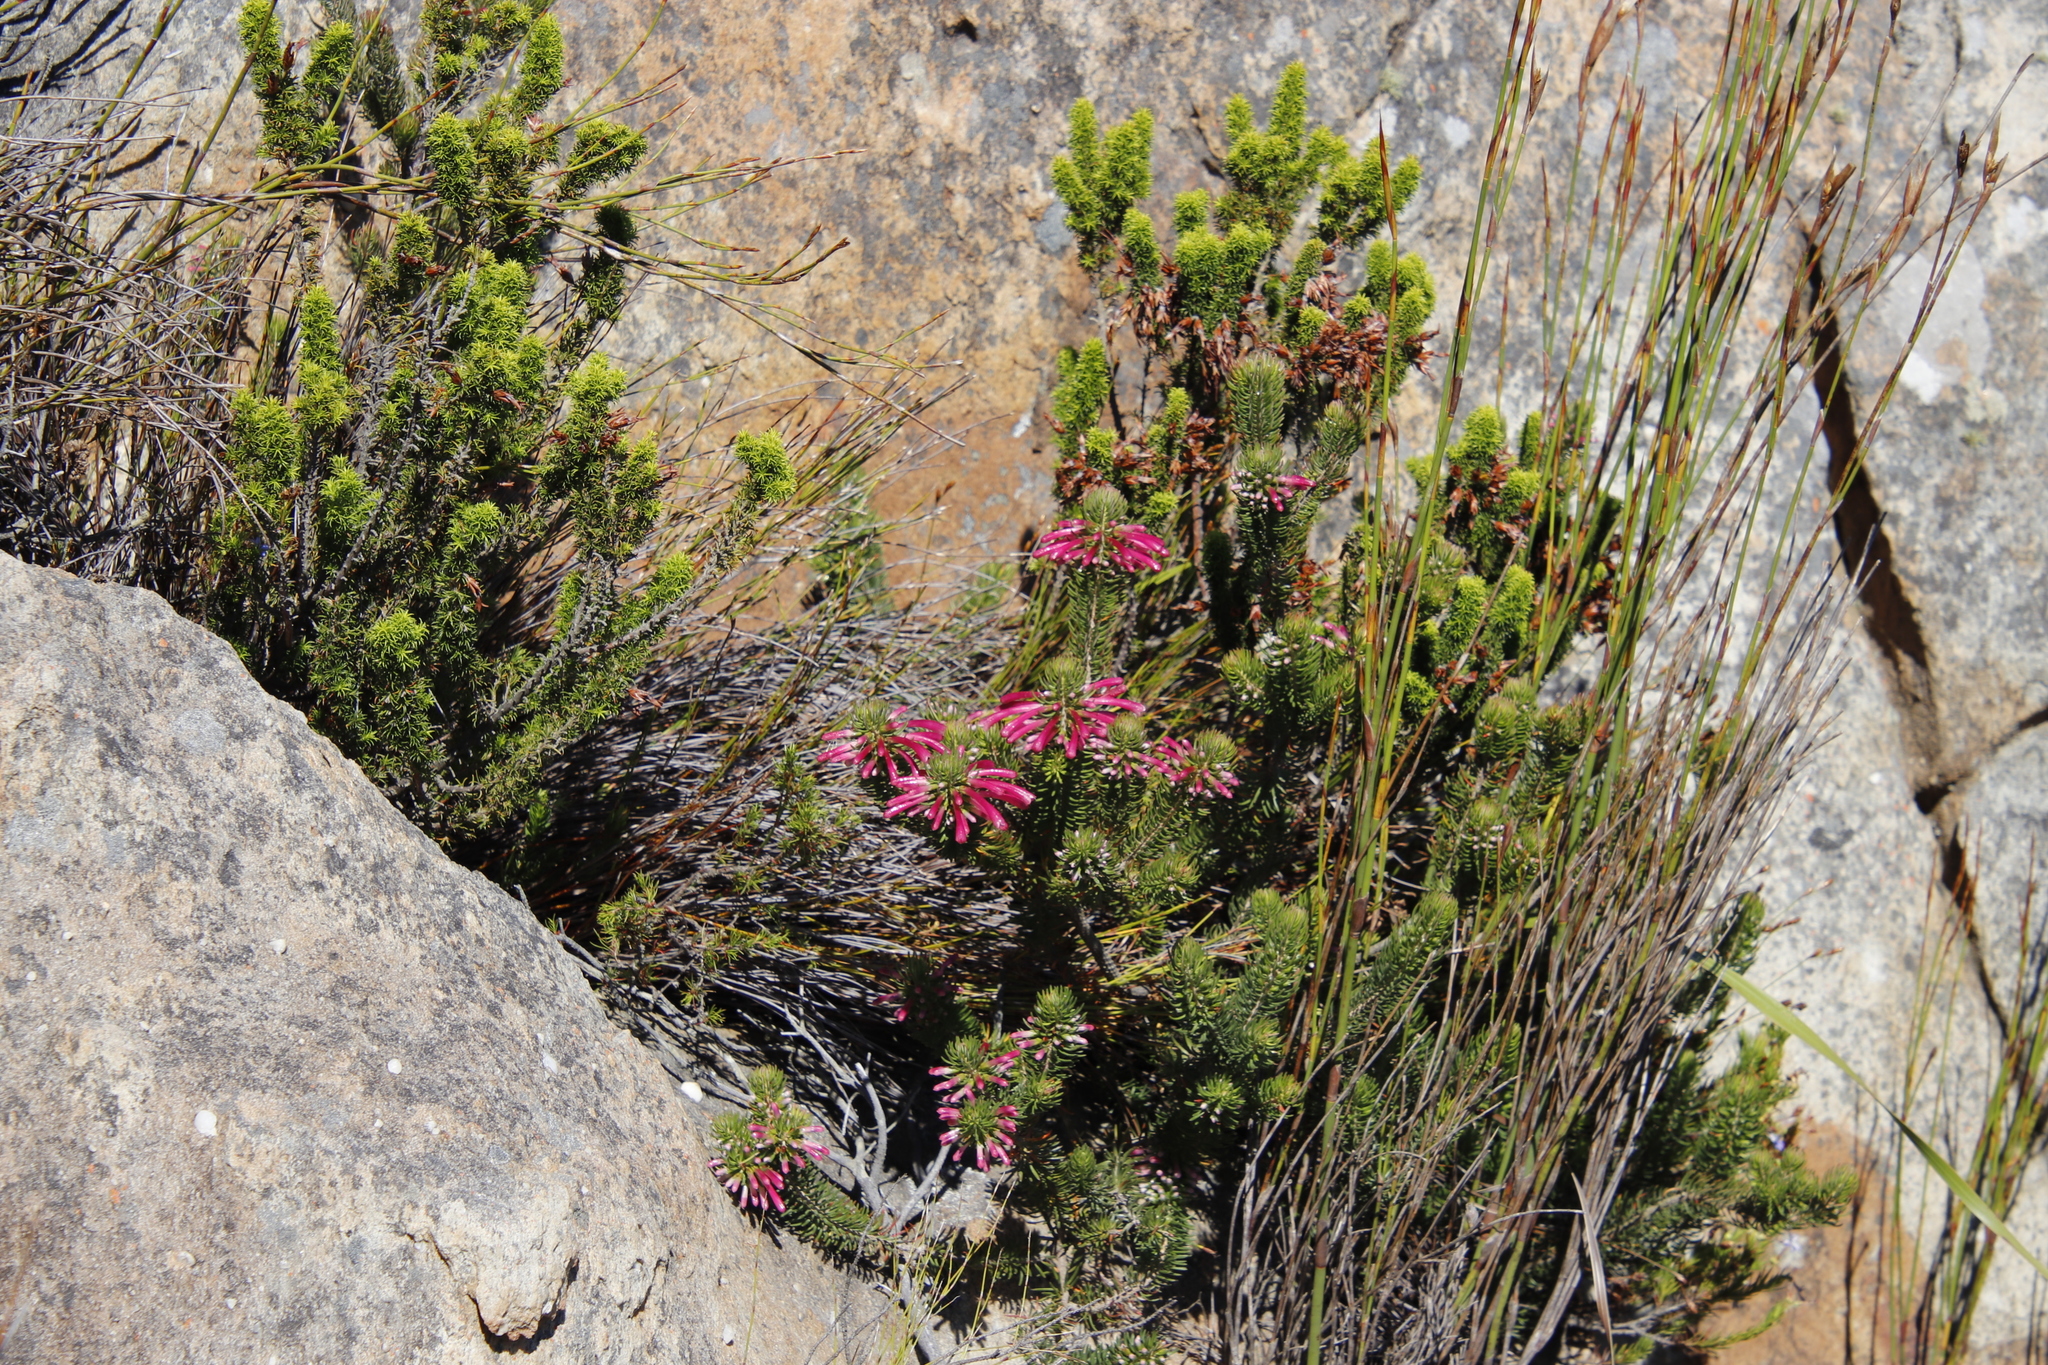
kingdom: Plantae
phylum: Tracheophyta
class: Magnoliopsida
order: Ericales
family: Ericaceae
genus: Erica
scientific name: Erica thomae
